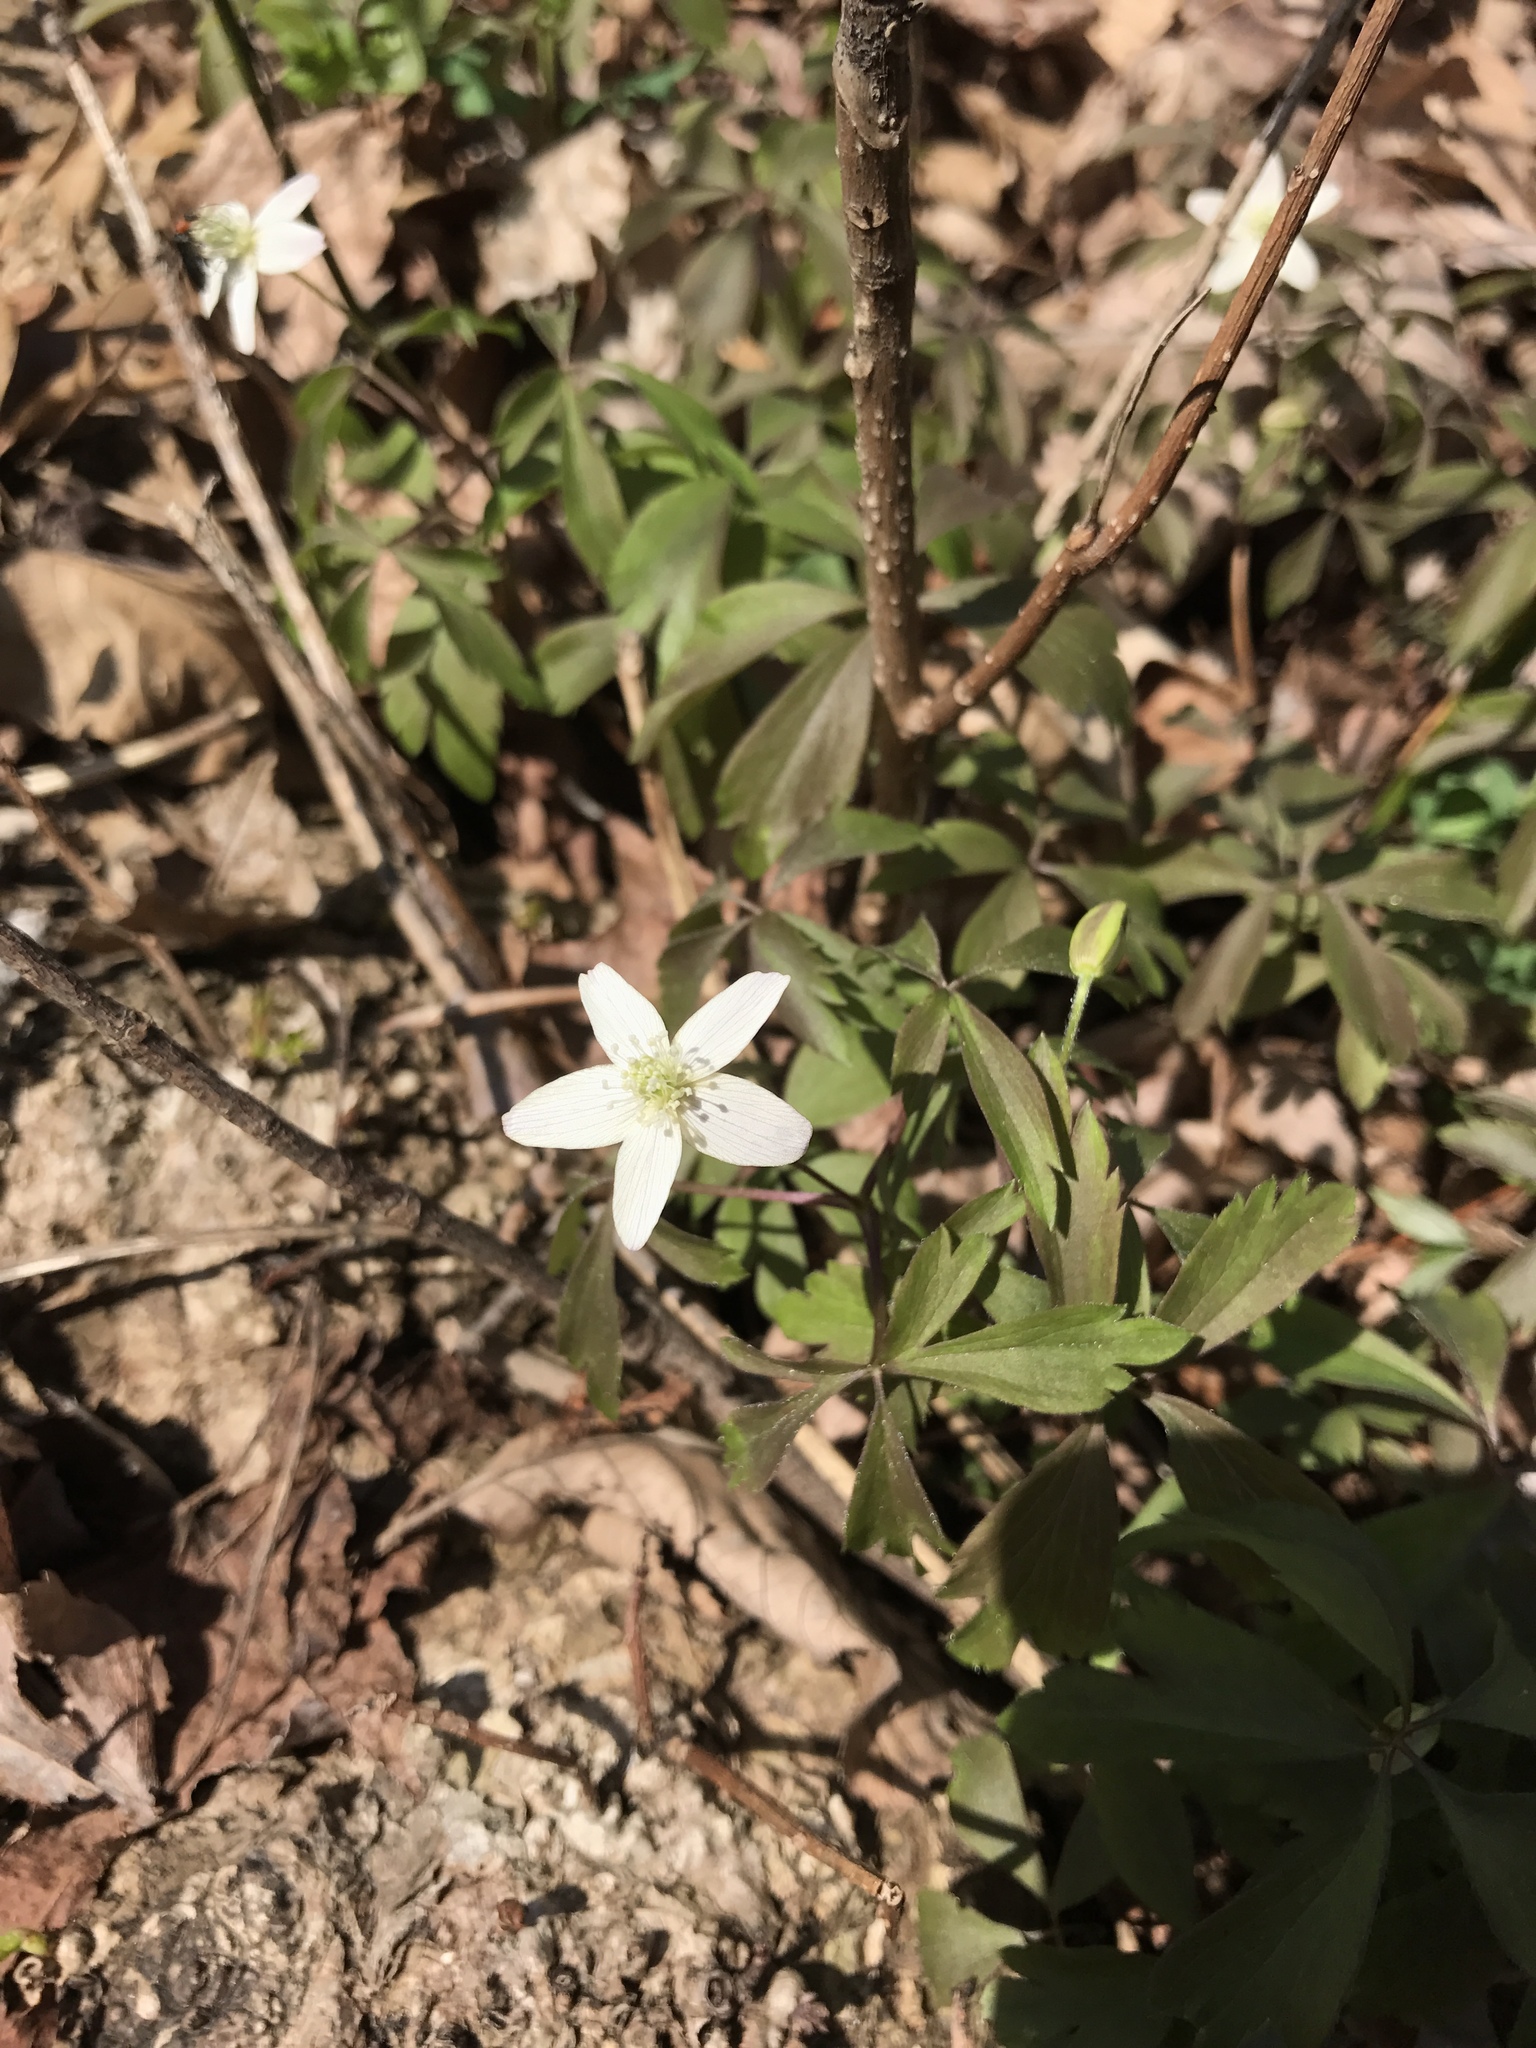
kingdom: Plantae
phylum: Tracheophyta
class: Magnoliopsida
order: Ranunculales
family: Ranunculaceae
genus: Anemone
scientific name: Anemone quinquefolia
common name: Wood anemone
